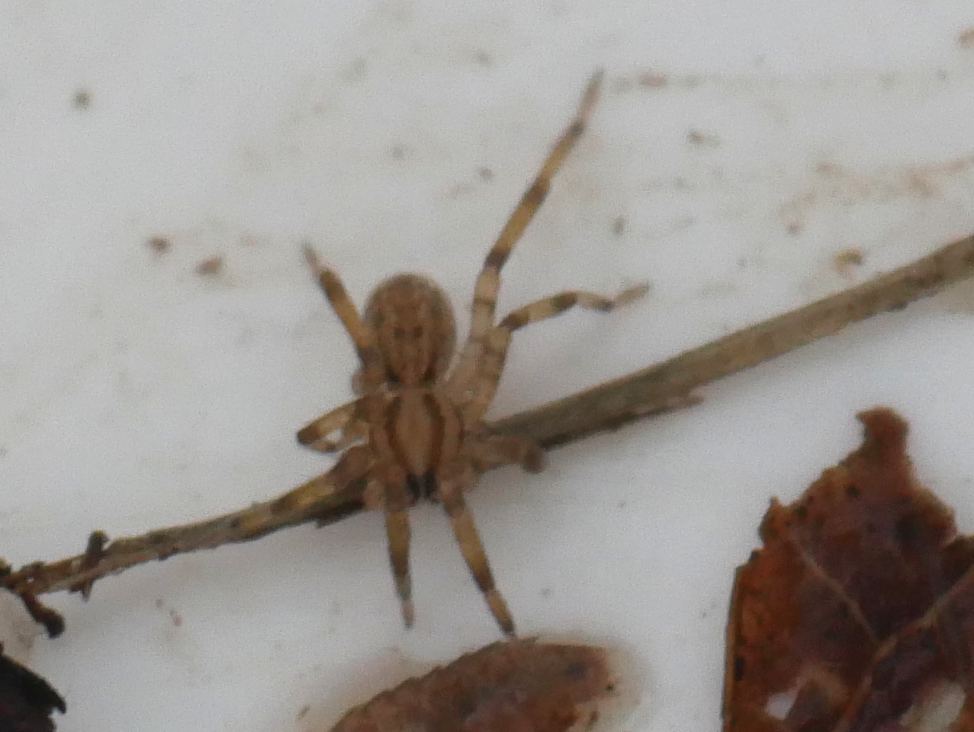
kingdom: Animalia
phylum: Arthropoda
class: Arachnida
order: Araneae
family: Miturgidae
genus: Zora
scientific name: Zora spinimana
